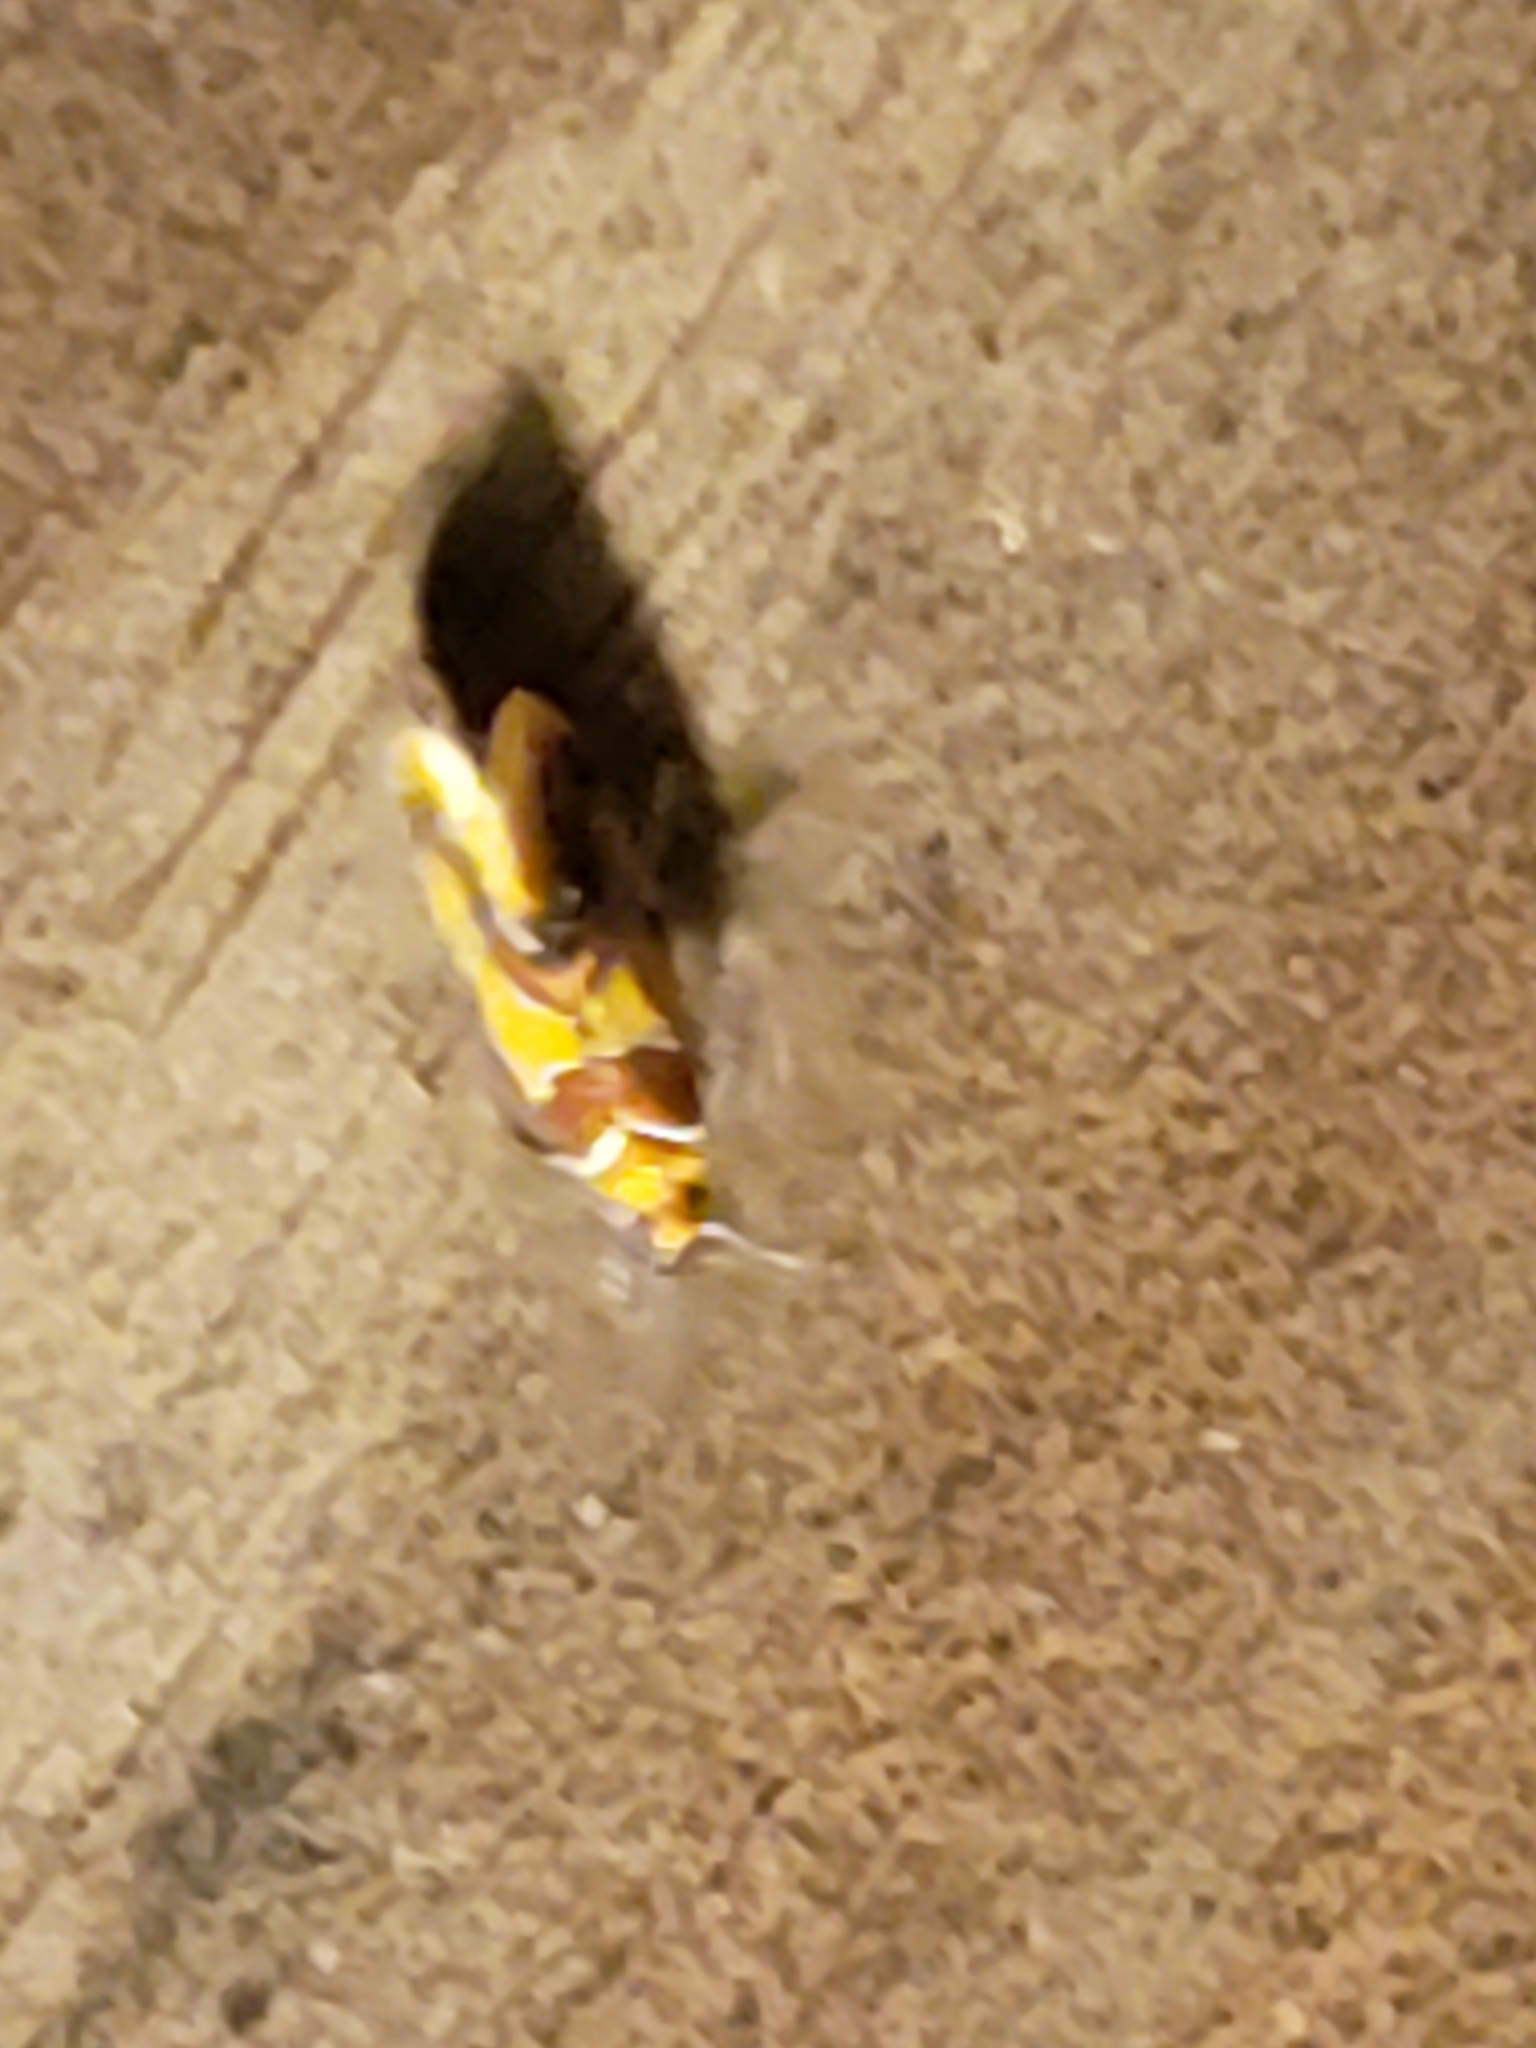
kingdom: Animalia
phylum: Arthropoda
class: Insecta
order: Lepidoptera
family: Oecophoridae
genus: Callima
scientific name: Callima argenticinctella
